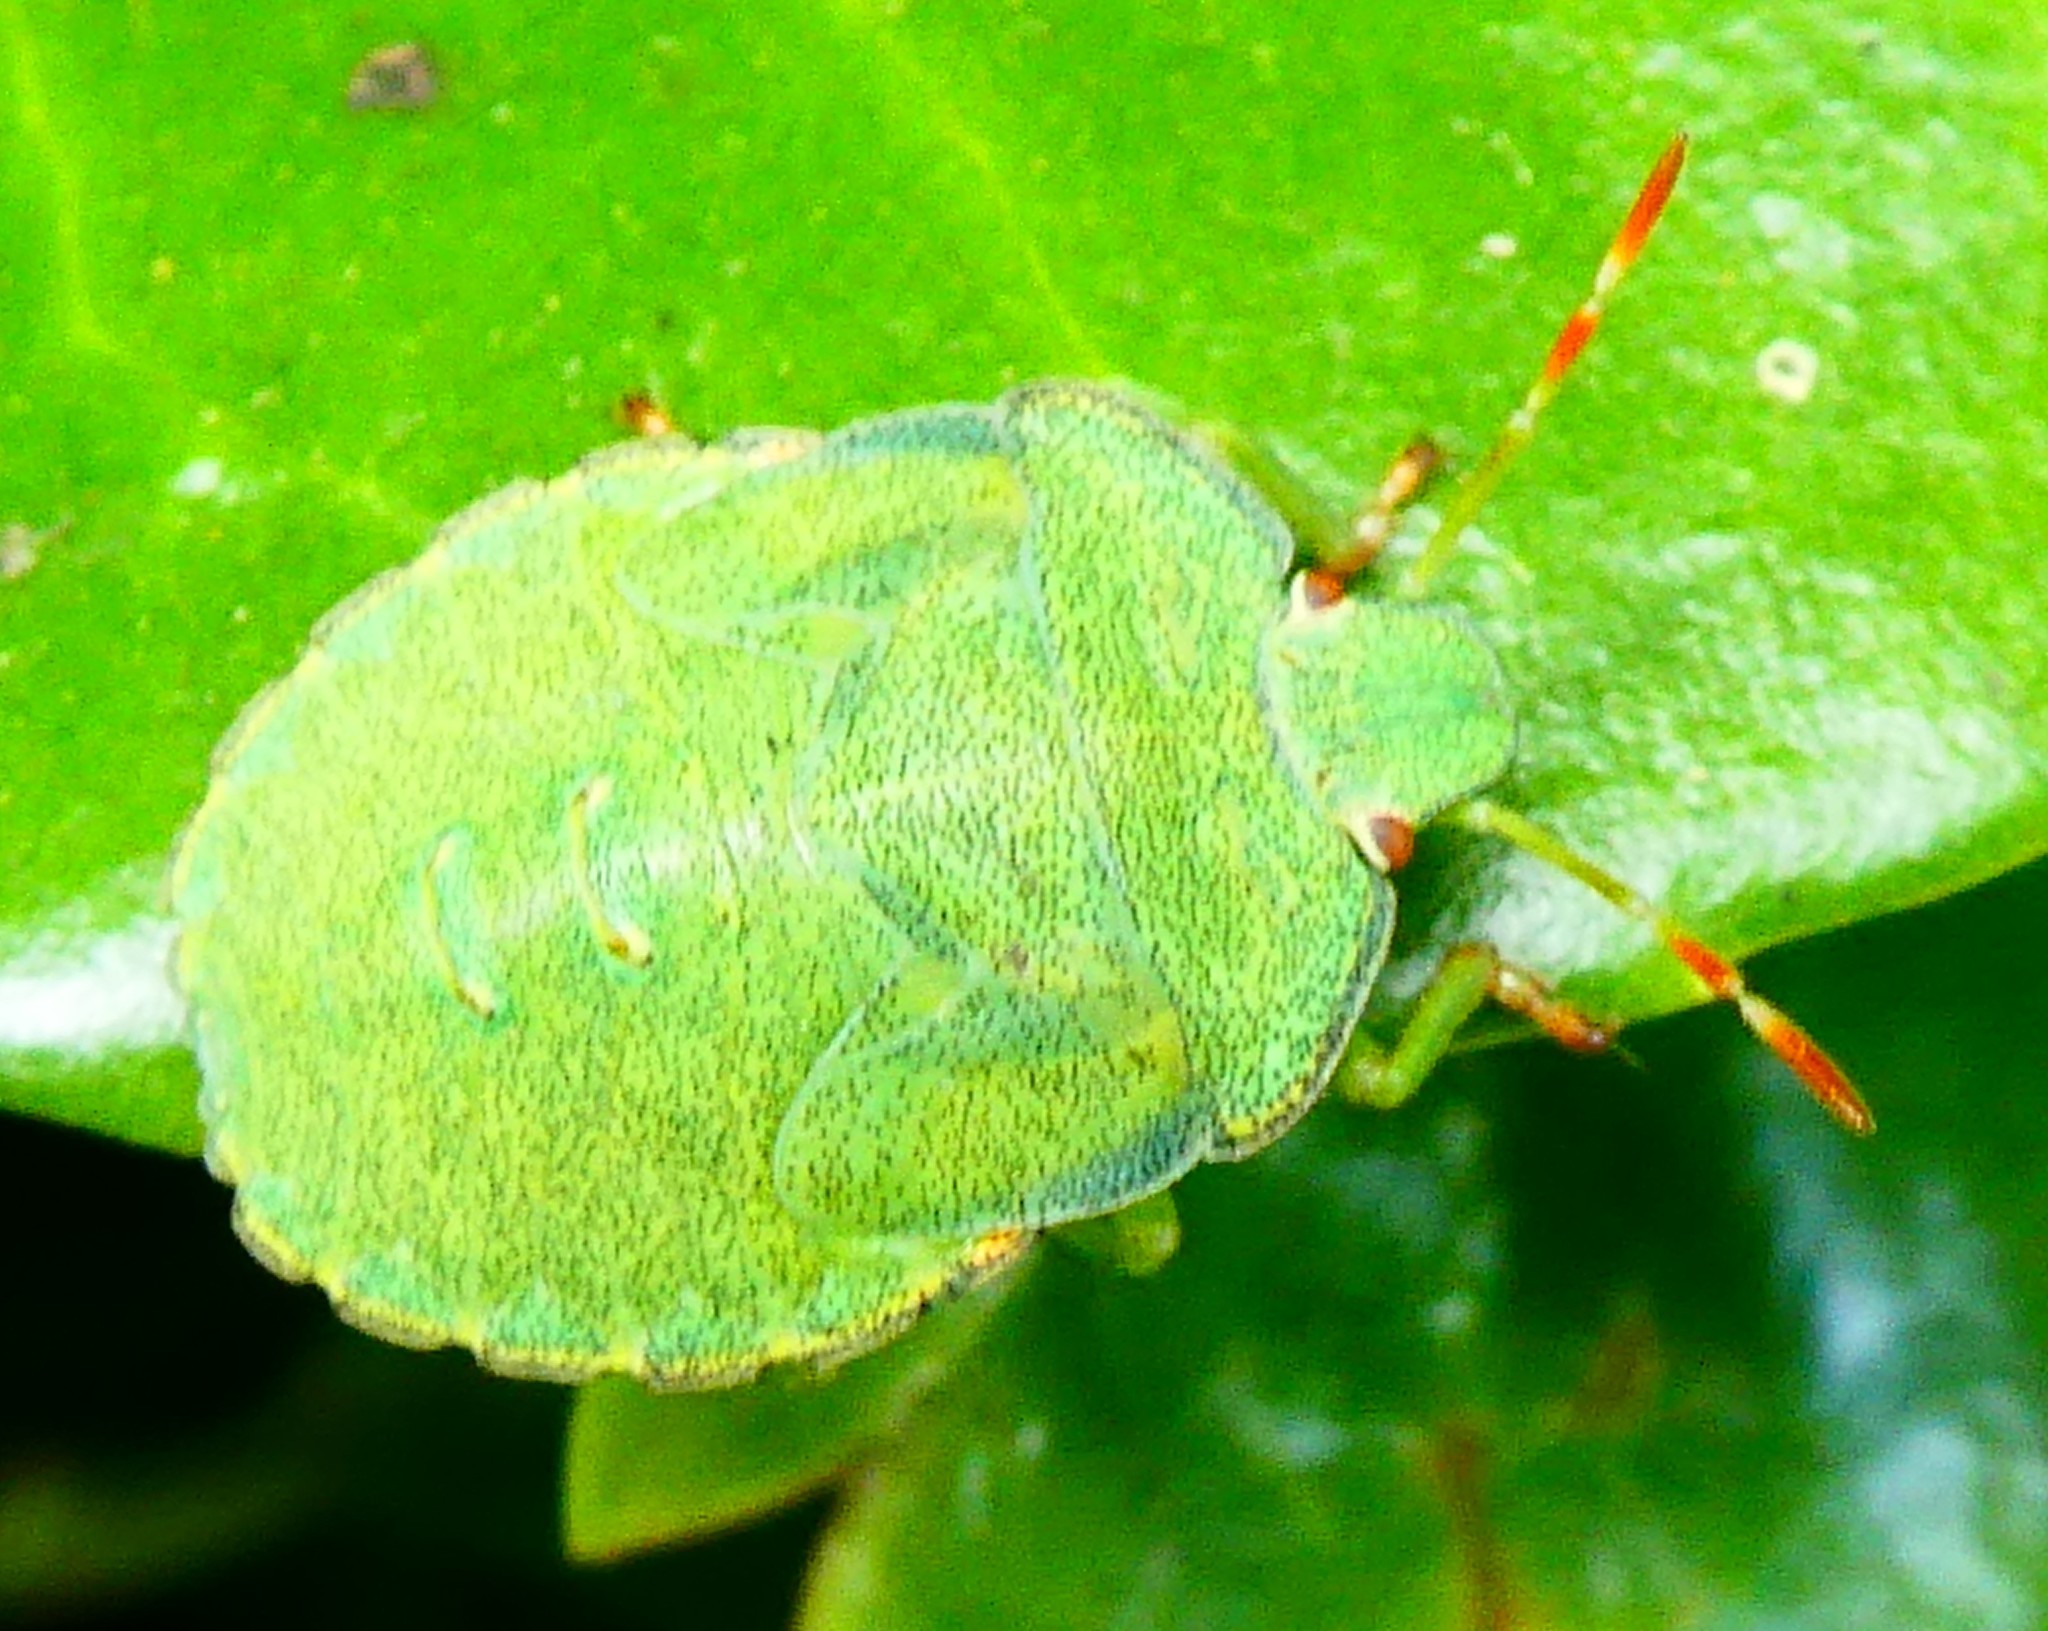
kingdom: Animalia
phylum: Arthropoda
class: Insecta
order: Hemiptera
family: Pentatomidae
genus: Palomena
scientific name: Palomena prasina
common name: Green shieldbug
